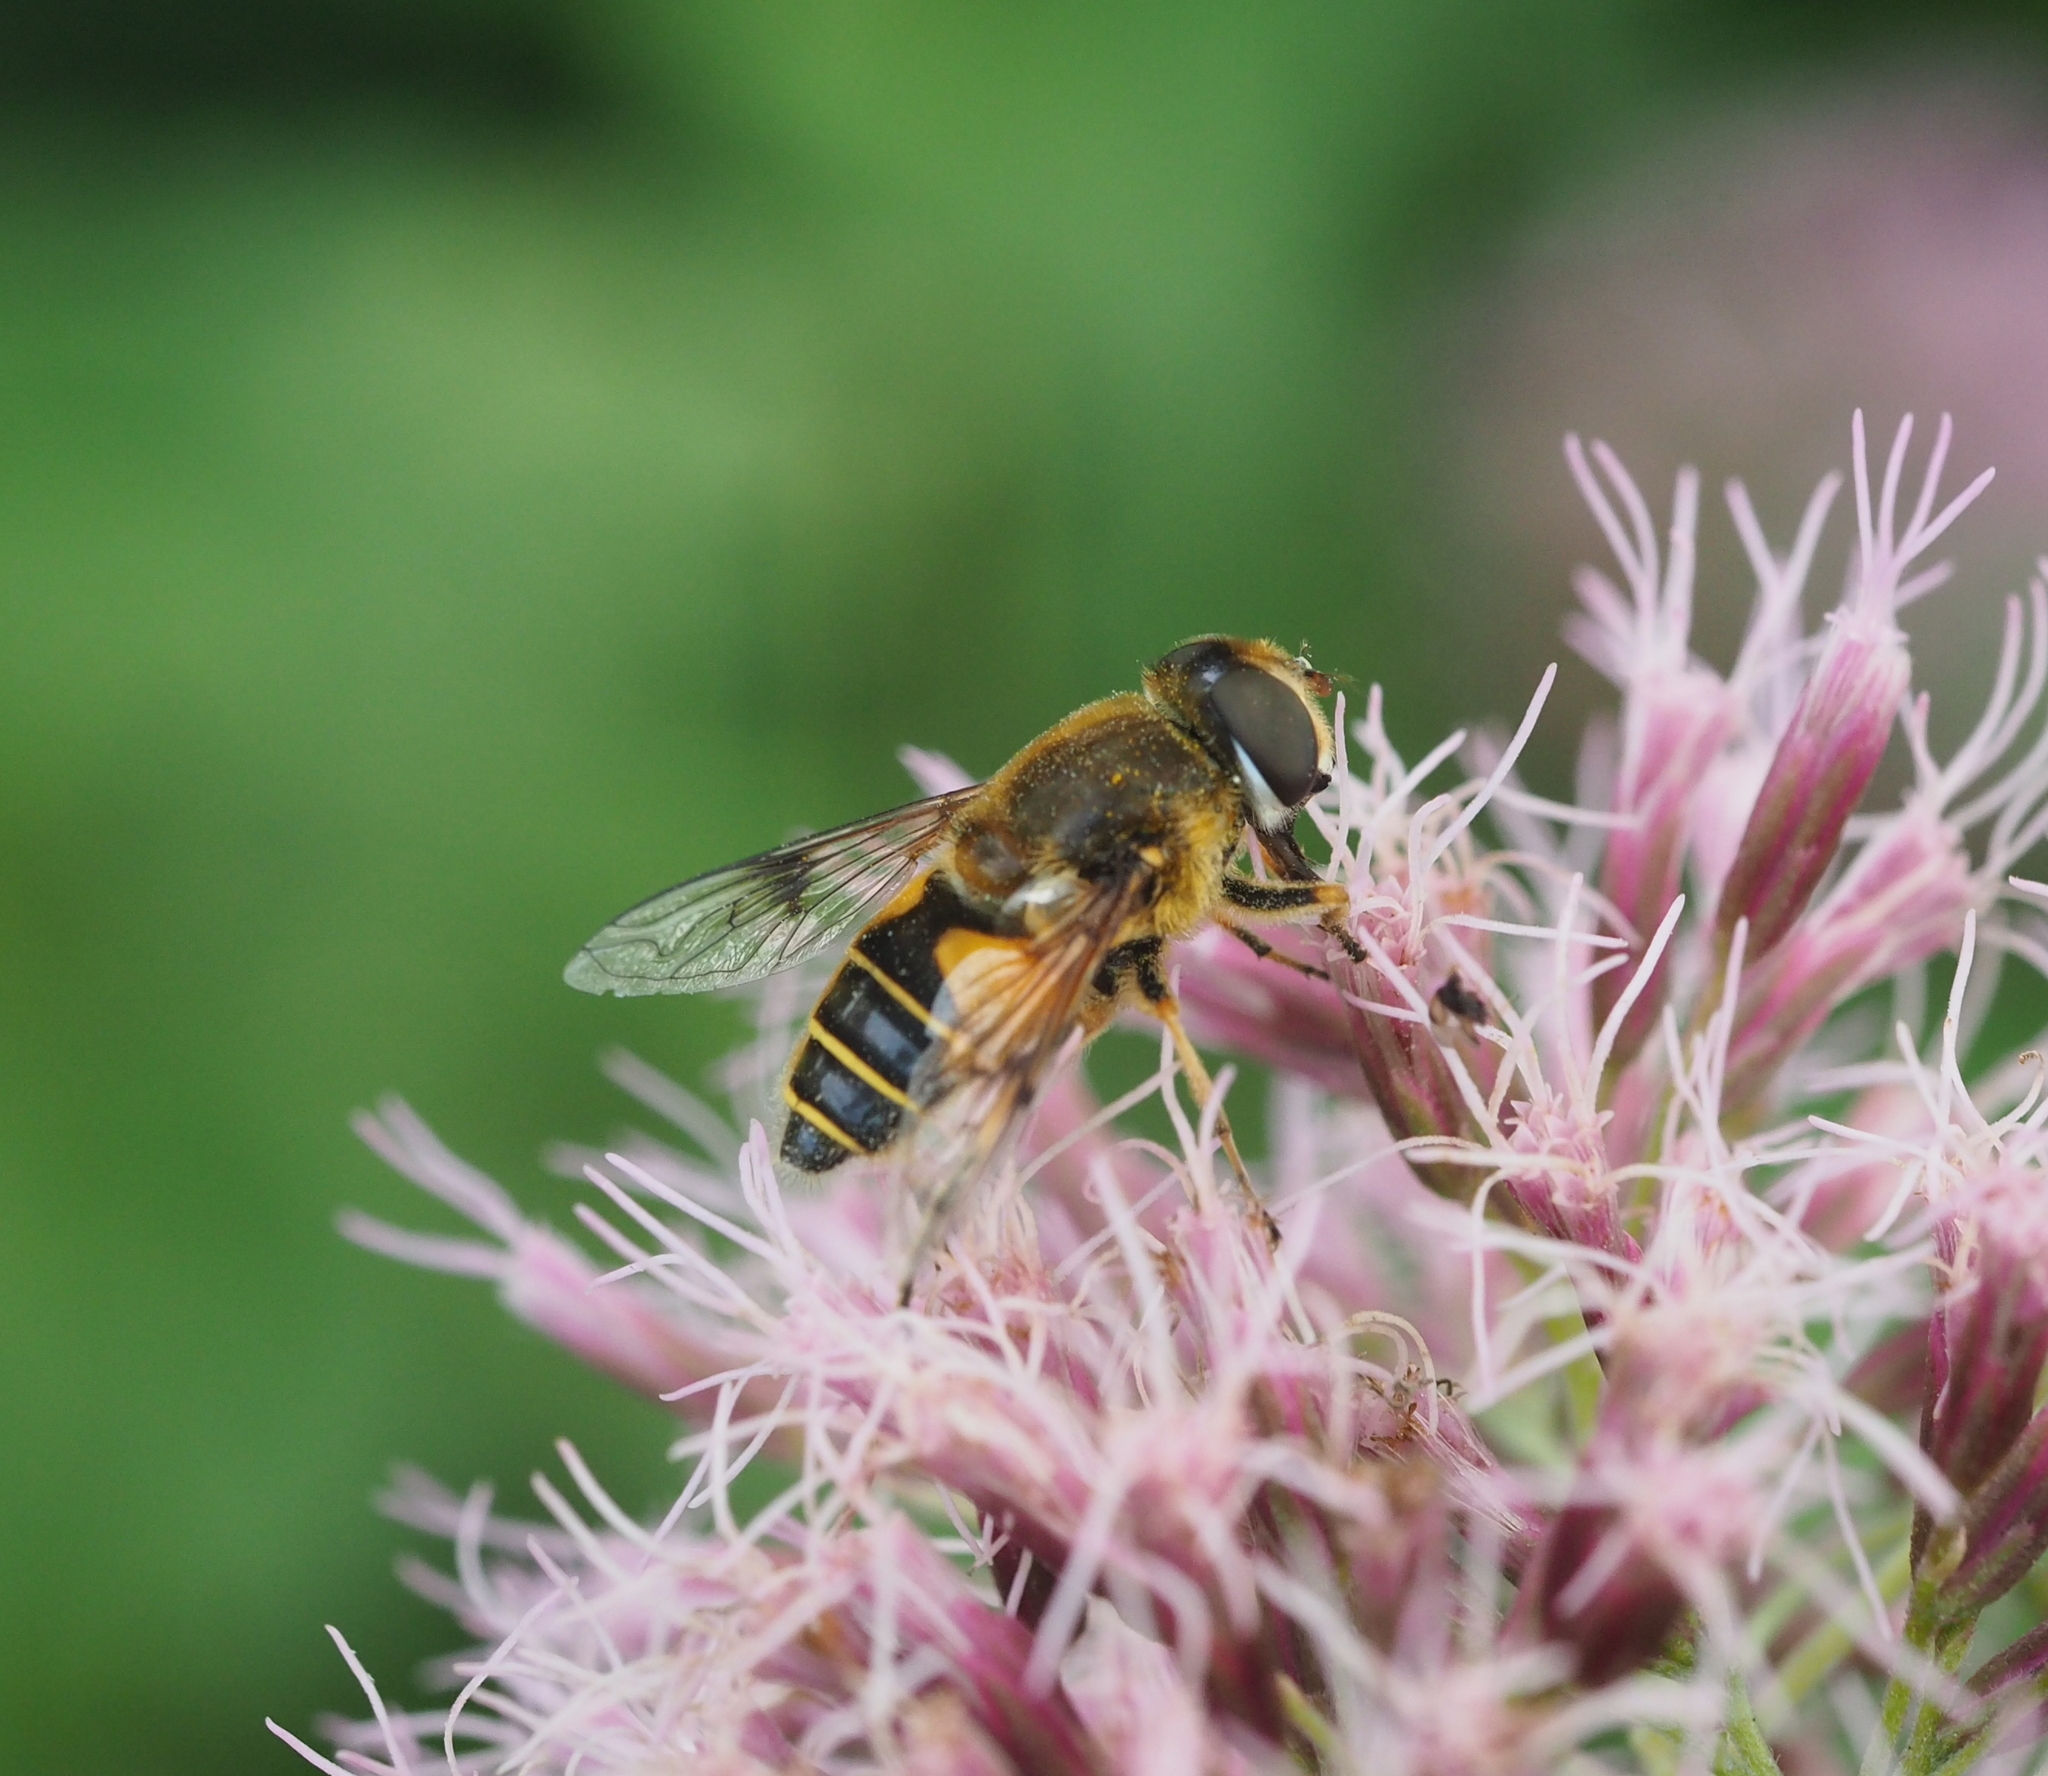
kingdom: Animalia
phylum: Arthropoda
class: Insecta
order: Diptera
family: Syrphidae
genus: Cheilosia
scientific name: Cheilosia morio
